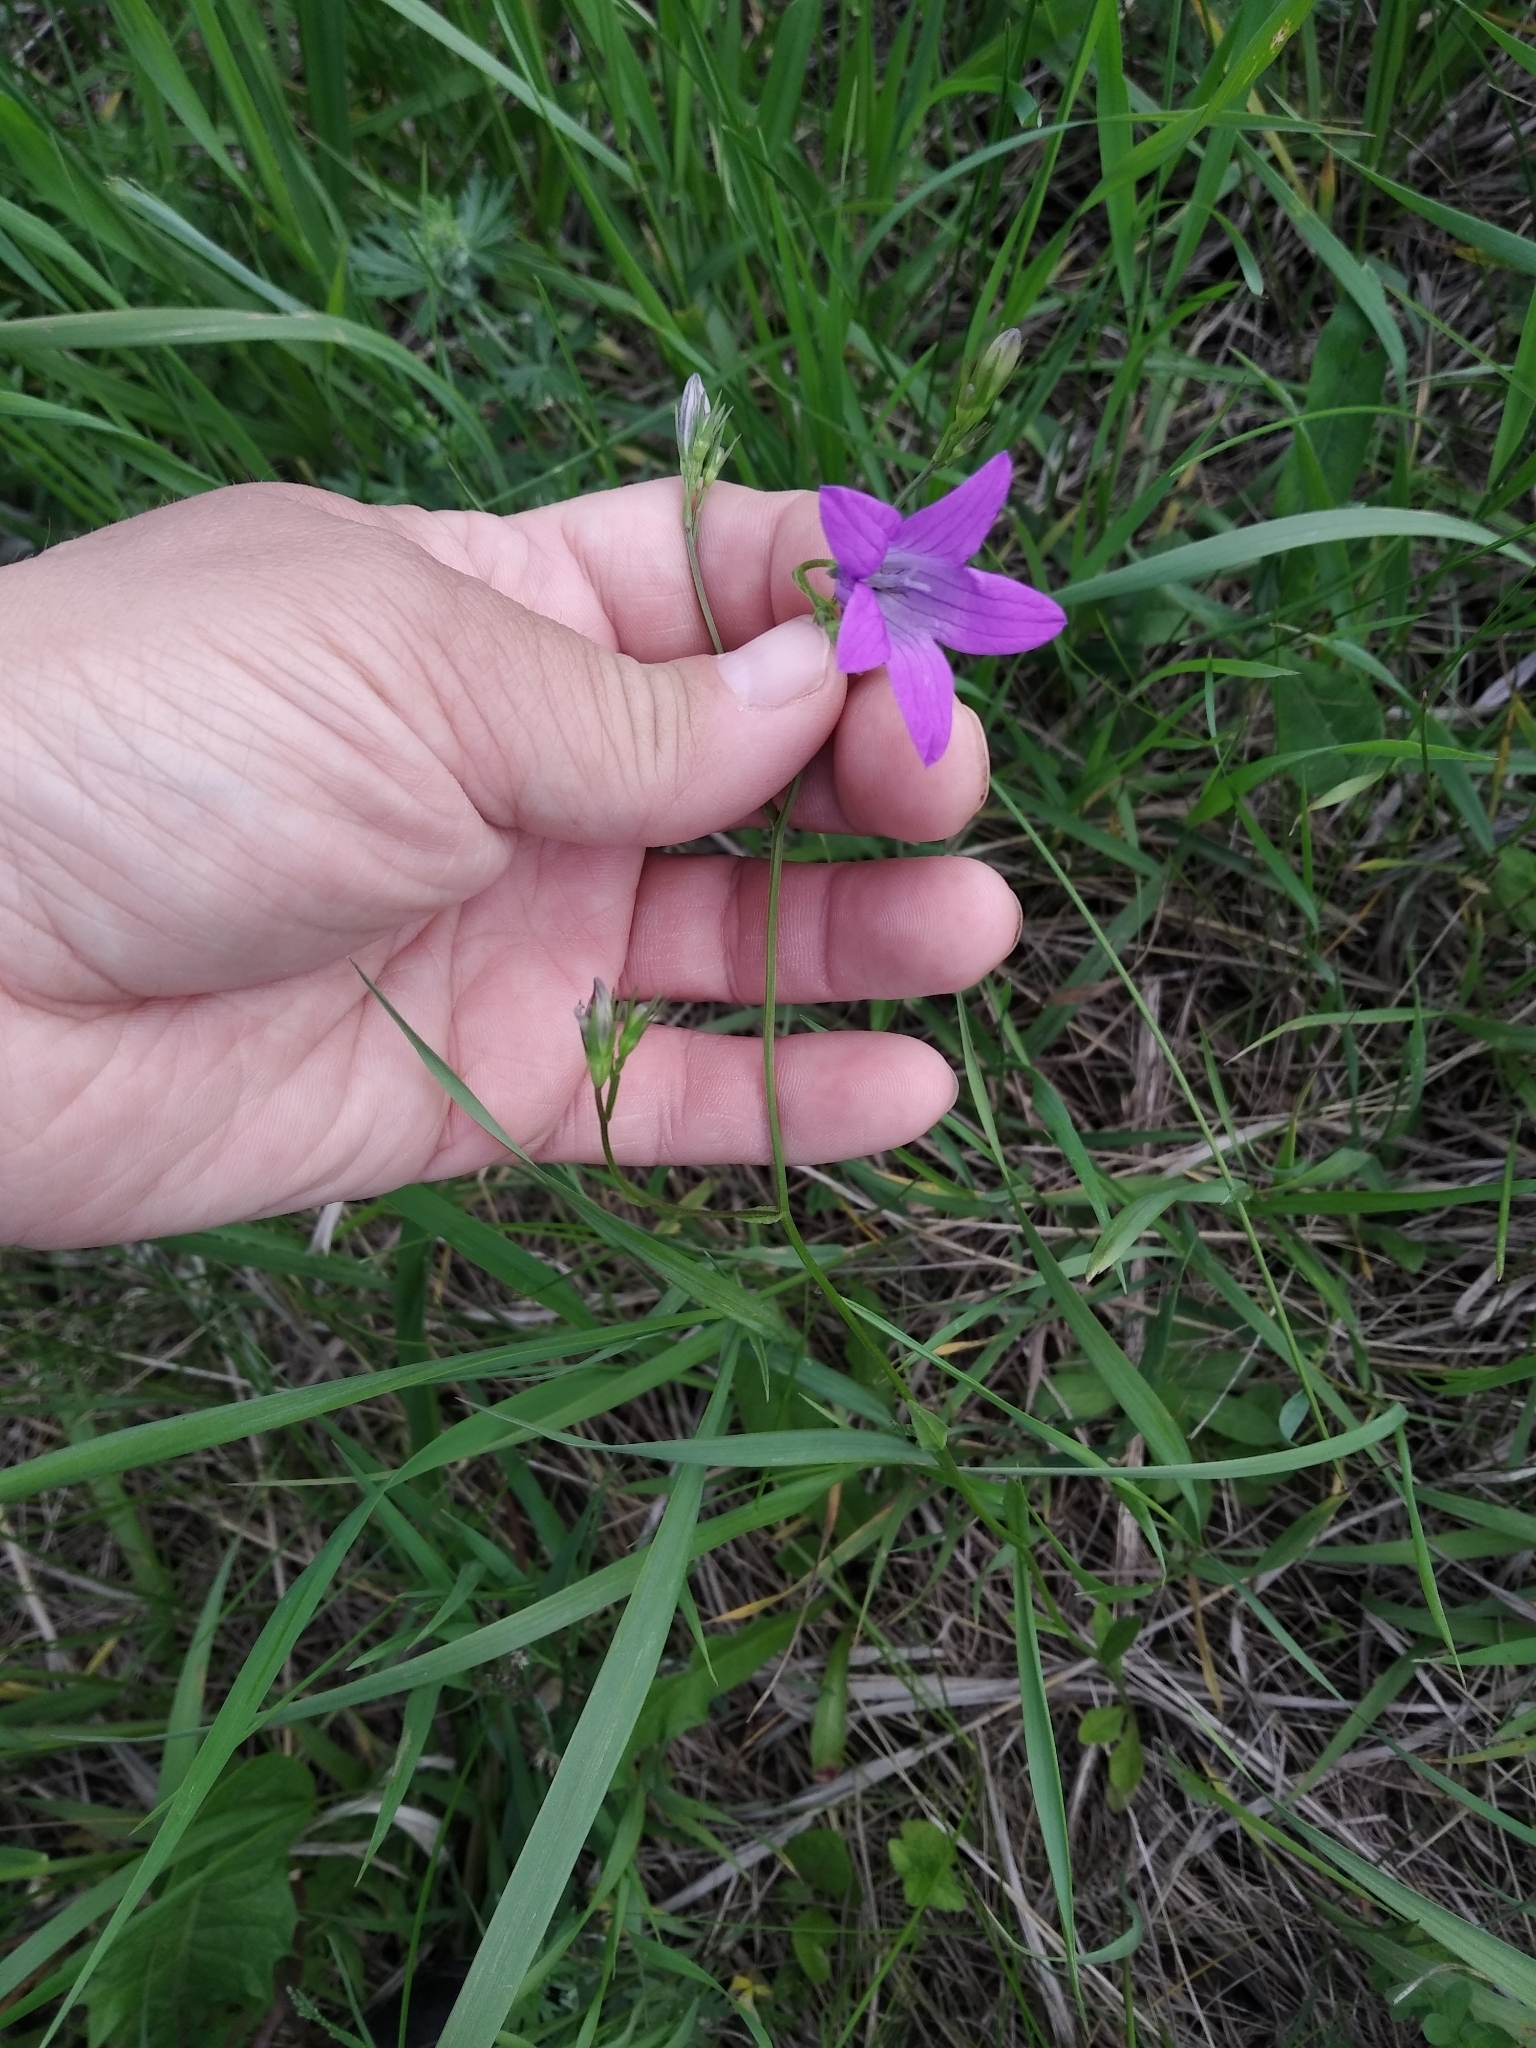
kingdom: Plantae
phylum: Tracheophyta
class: Magnoliopsida
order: Asterales
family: Campanulaceae
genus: Campanula
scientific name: Campanula patula
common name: Spreading bellflower
